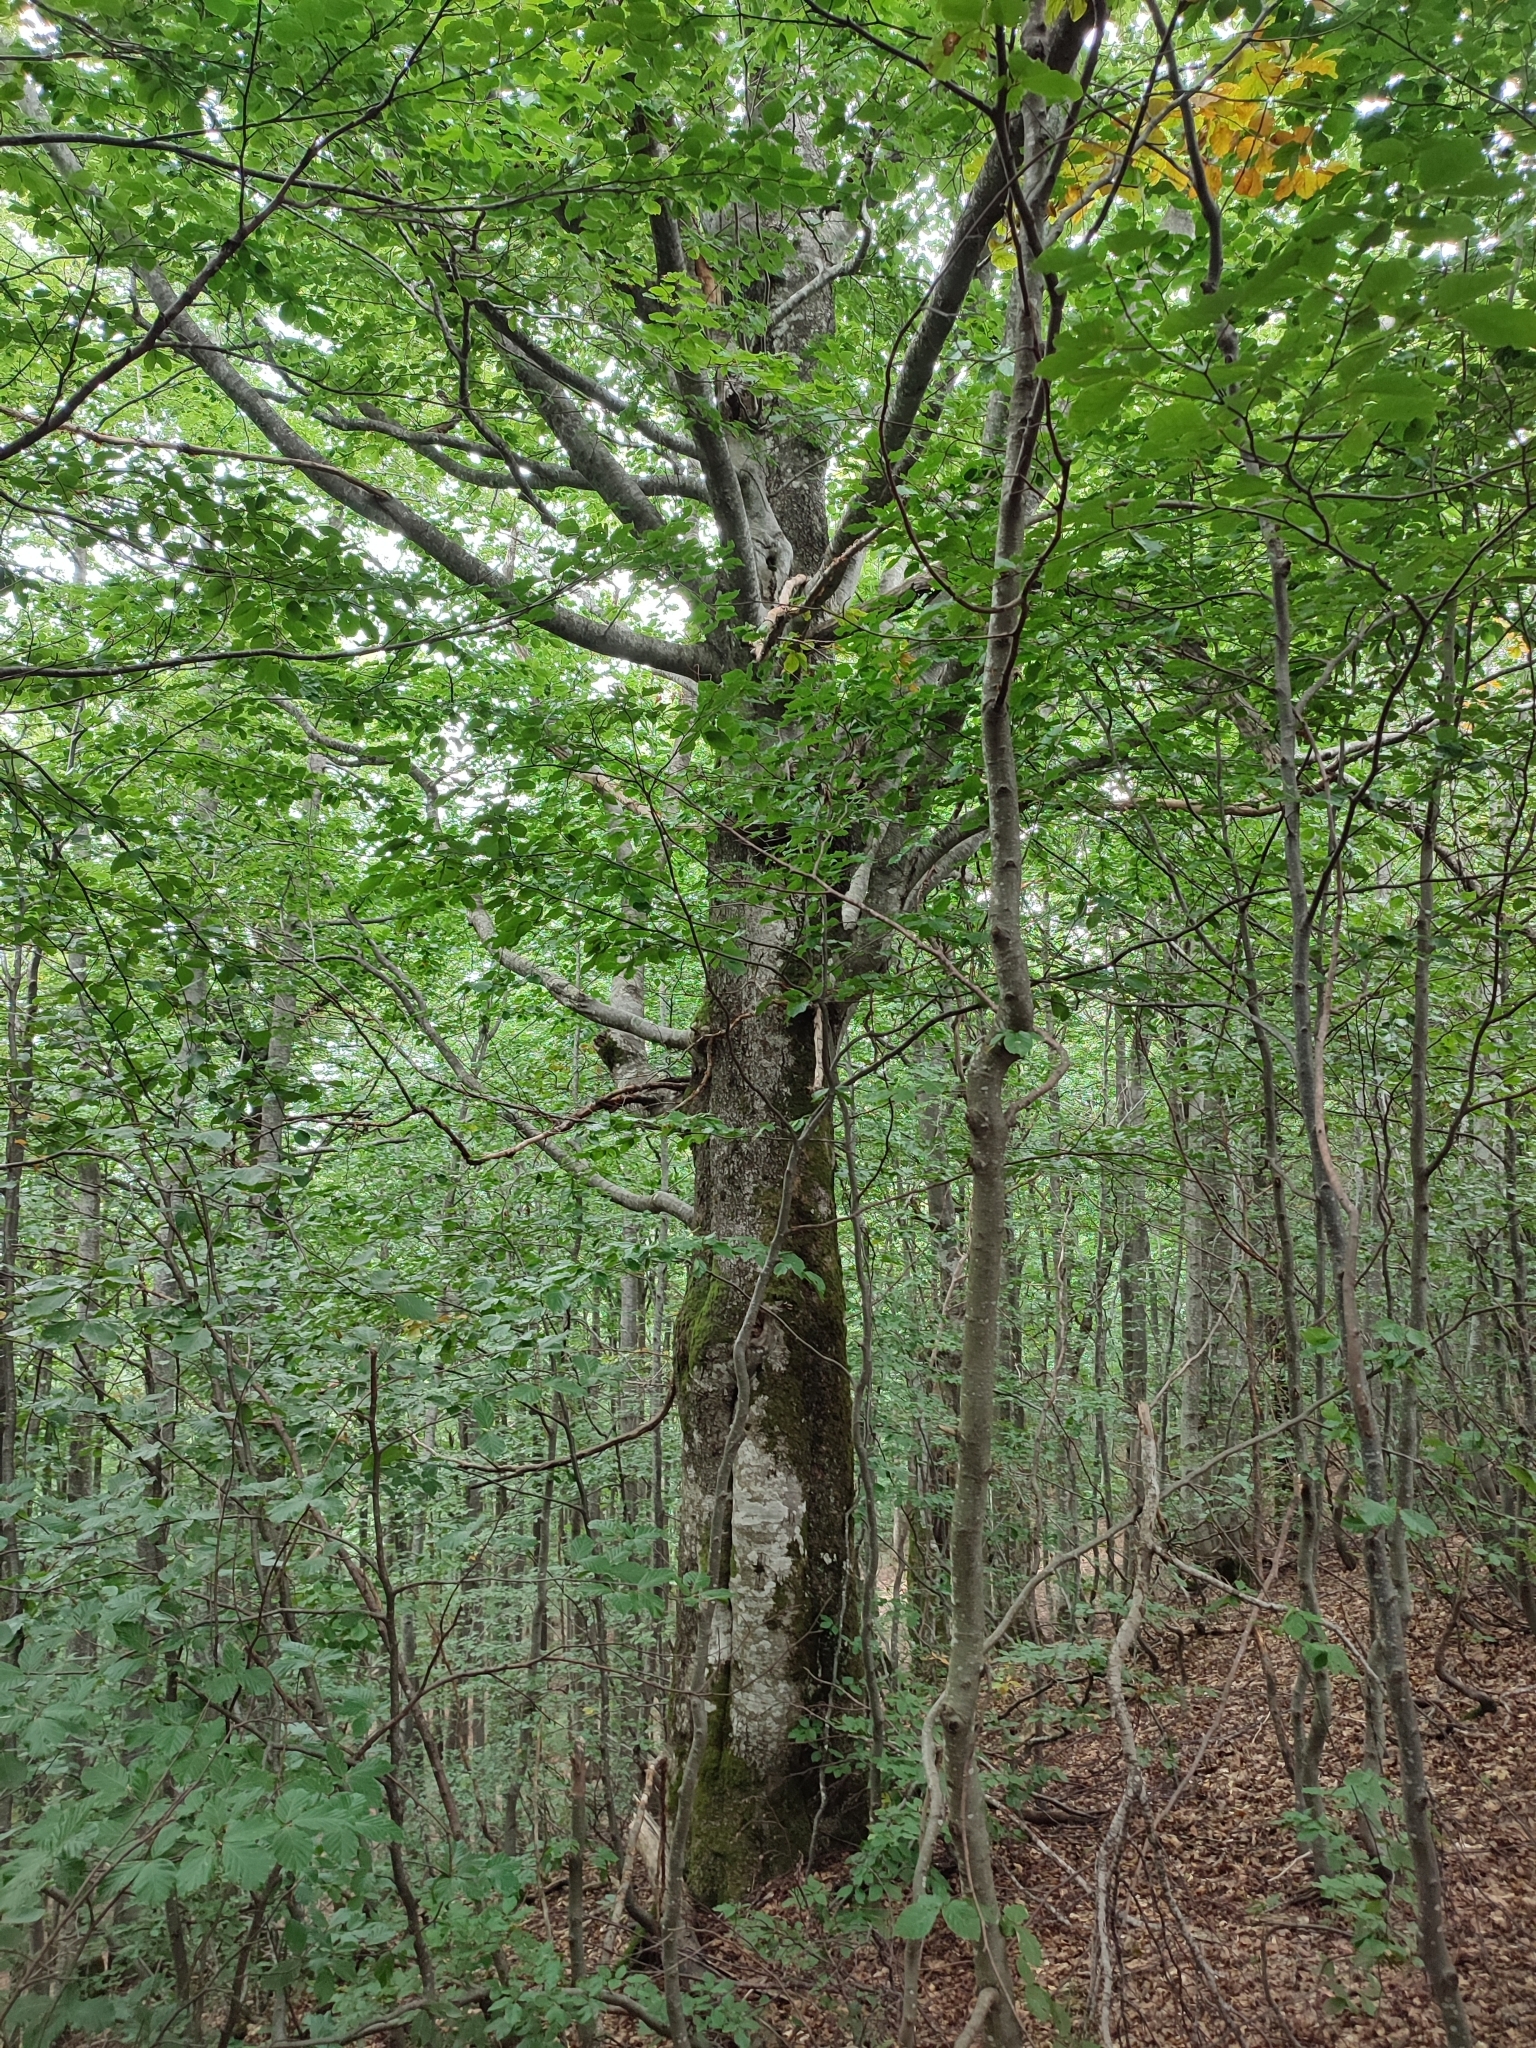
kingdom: Plantae
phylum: Tracheophyta
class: Magnoliopsida
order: Fagales
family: Fagaceae
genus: Fagus
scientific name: Fagus sylvatica
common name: Beech
